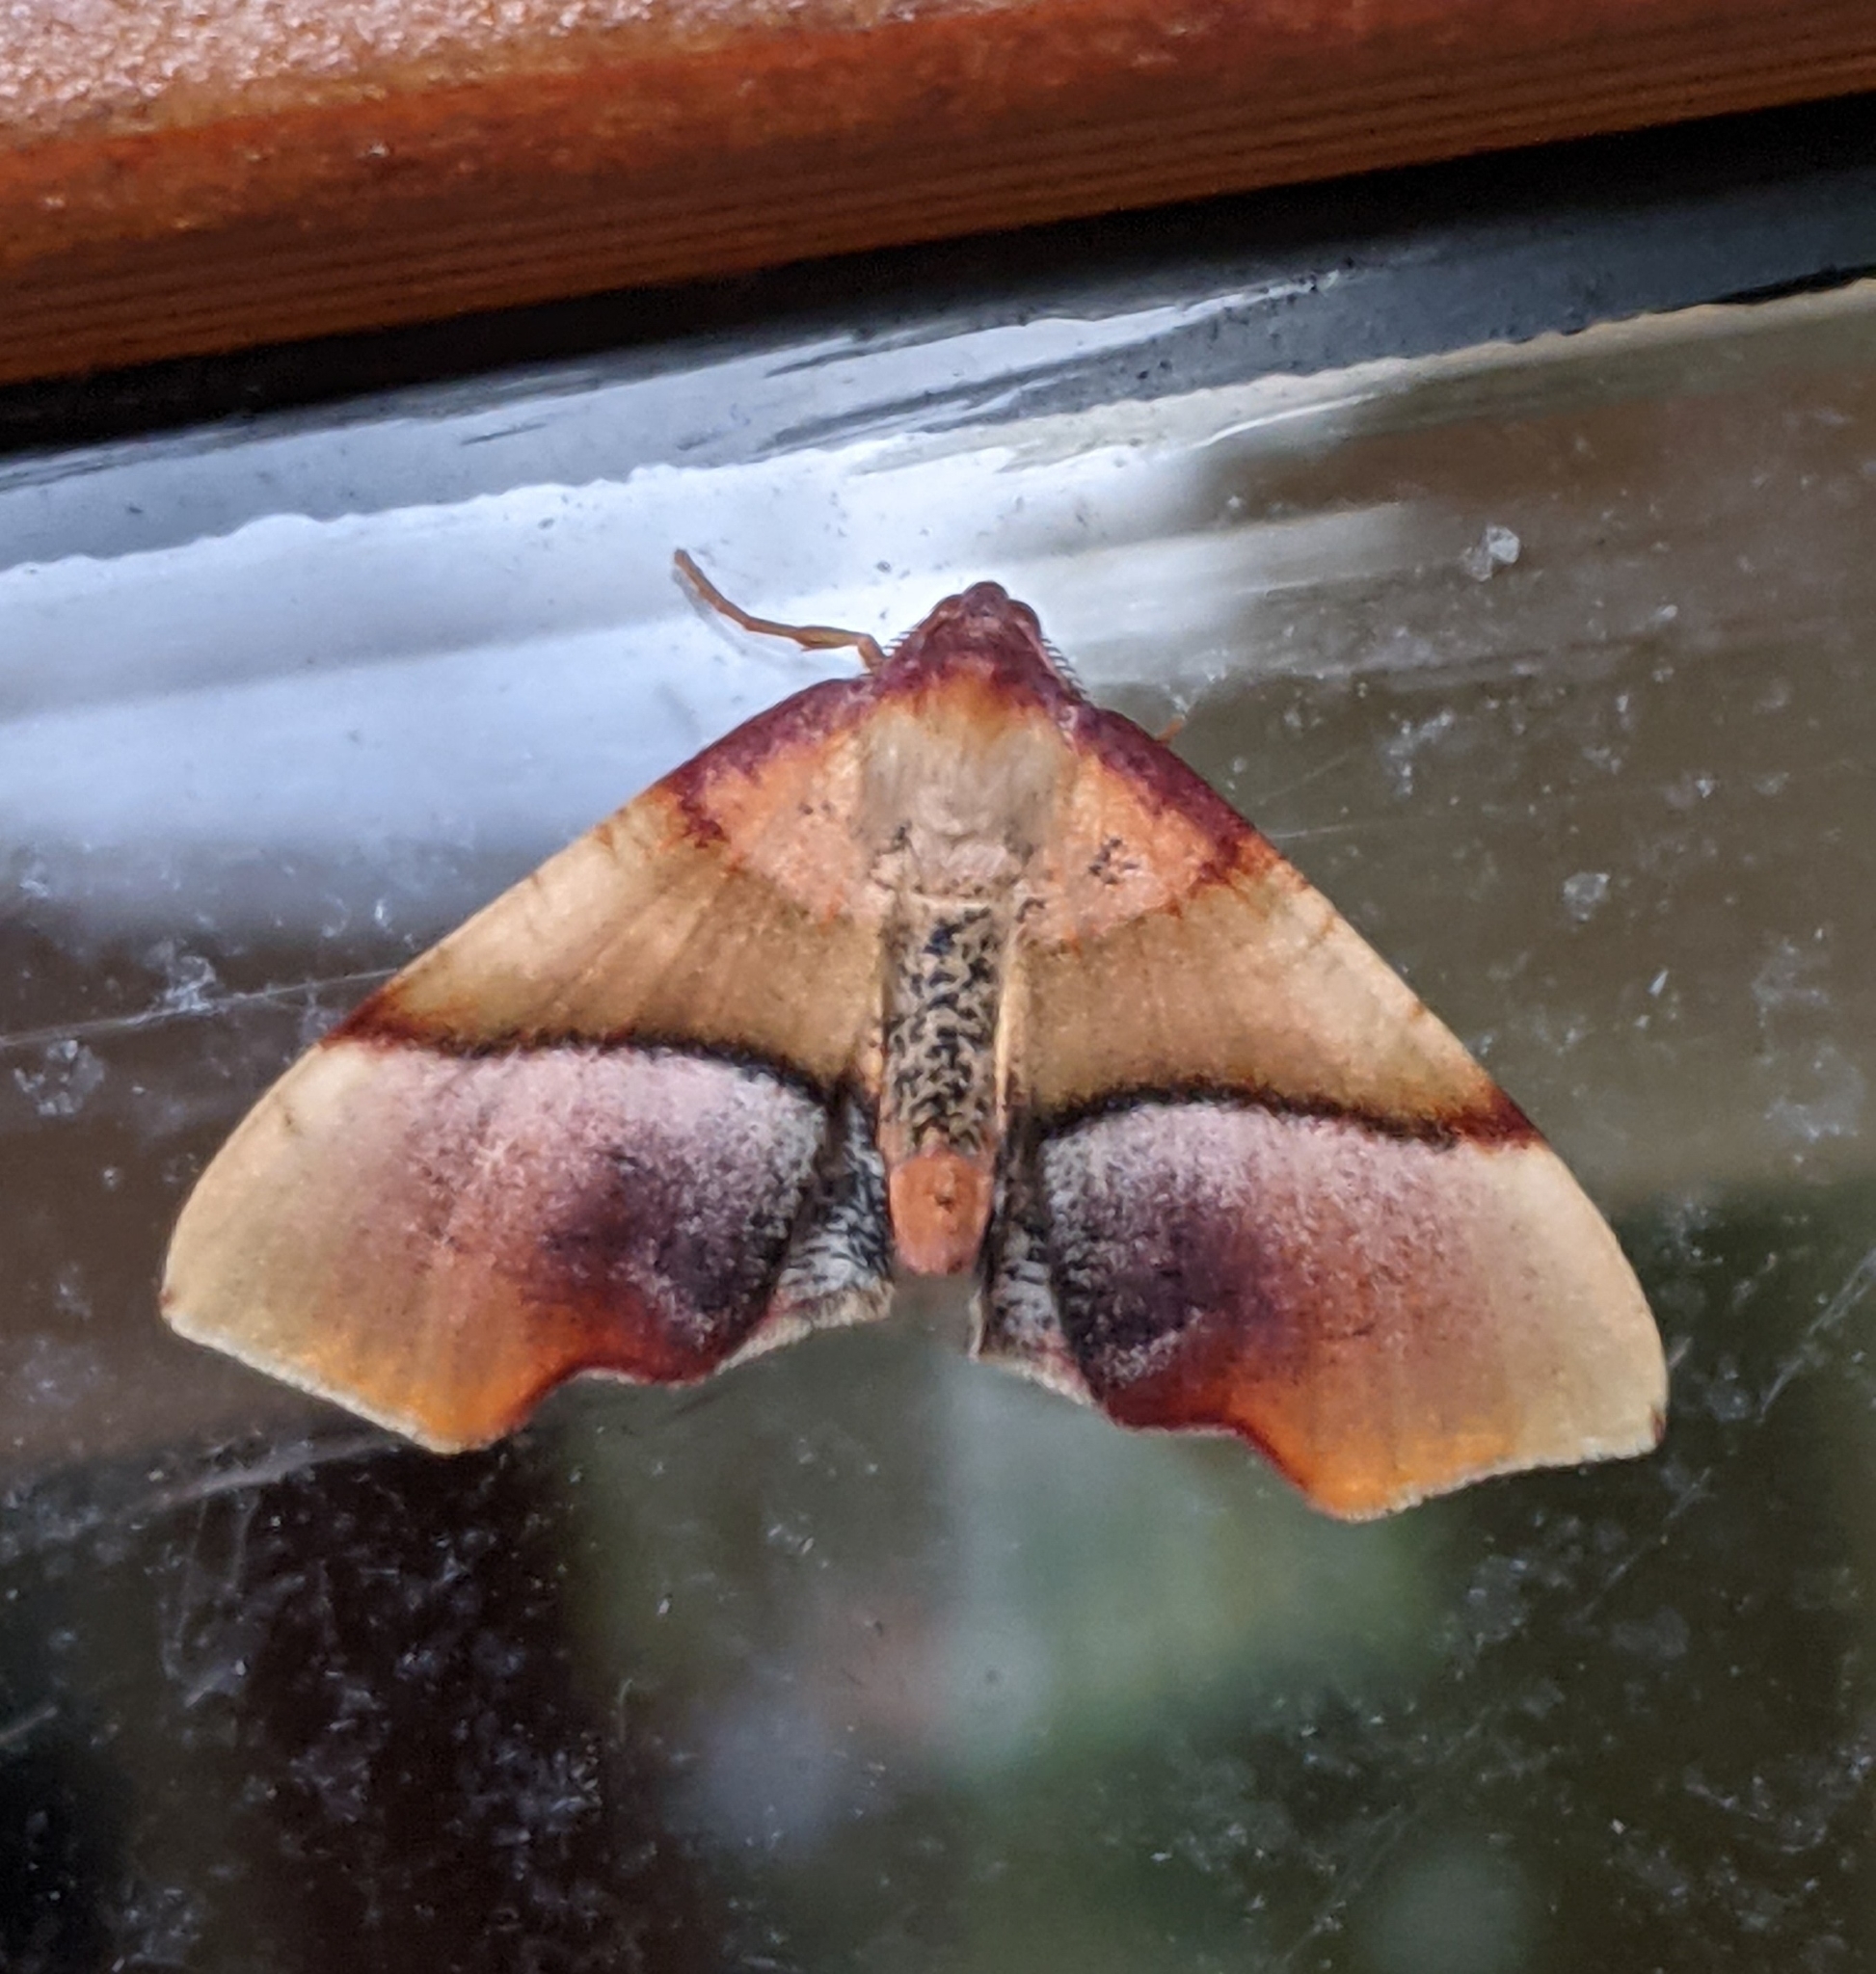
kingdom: Animalia
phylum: Arthropoda
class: Insecta
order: Lepidoptera
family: Geometridae
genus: Plagodis
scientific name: Plagodis phlogosaria
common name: Straight-lined plagodis
